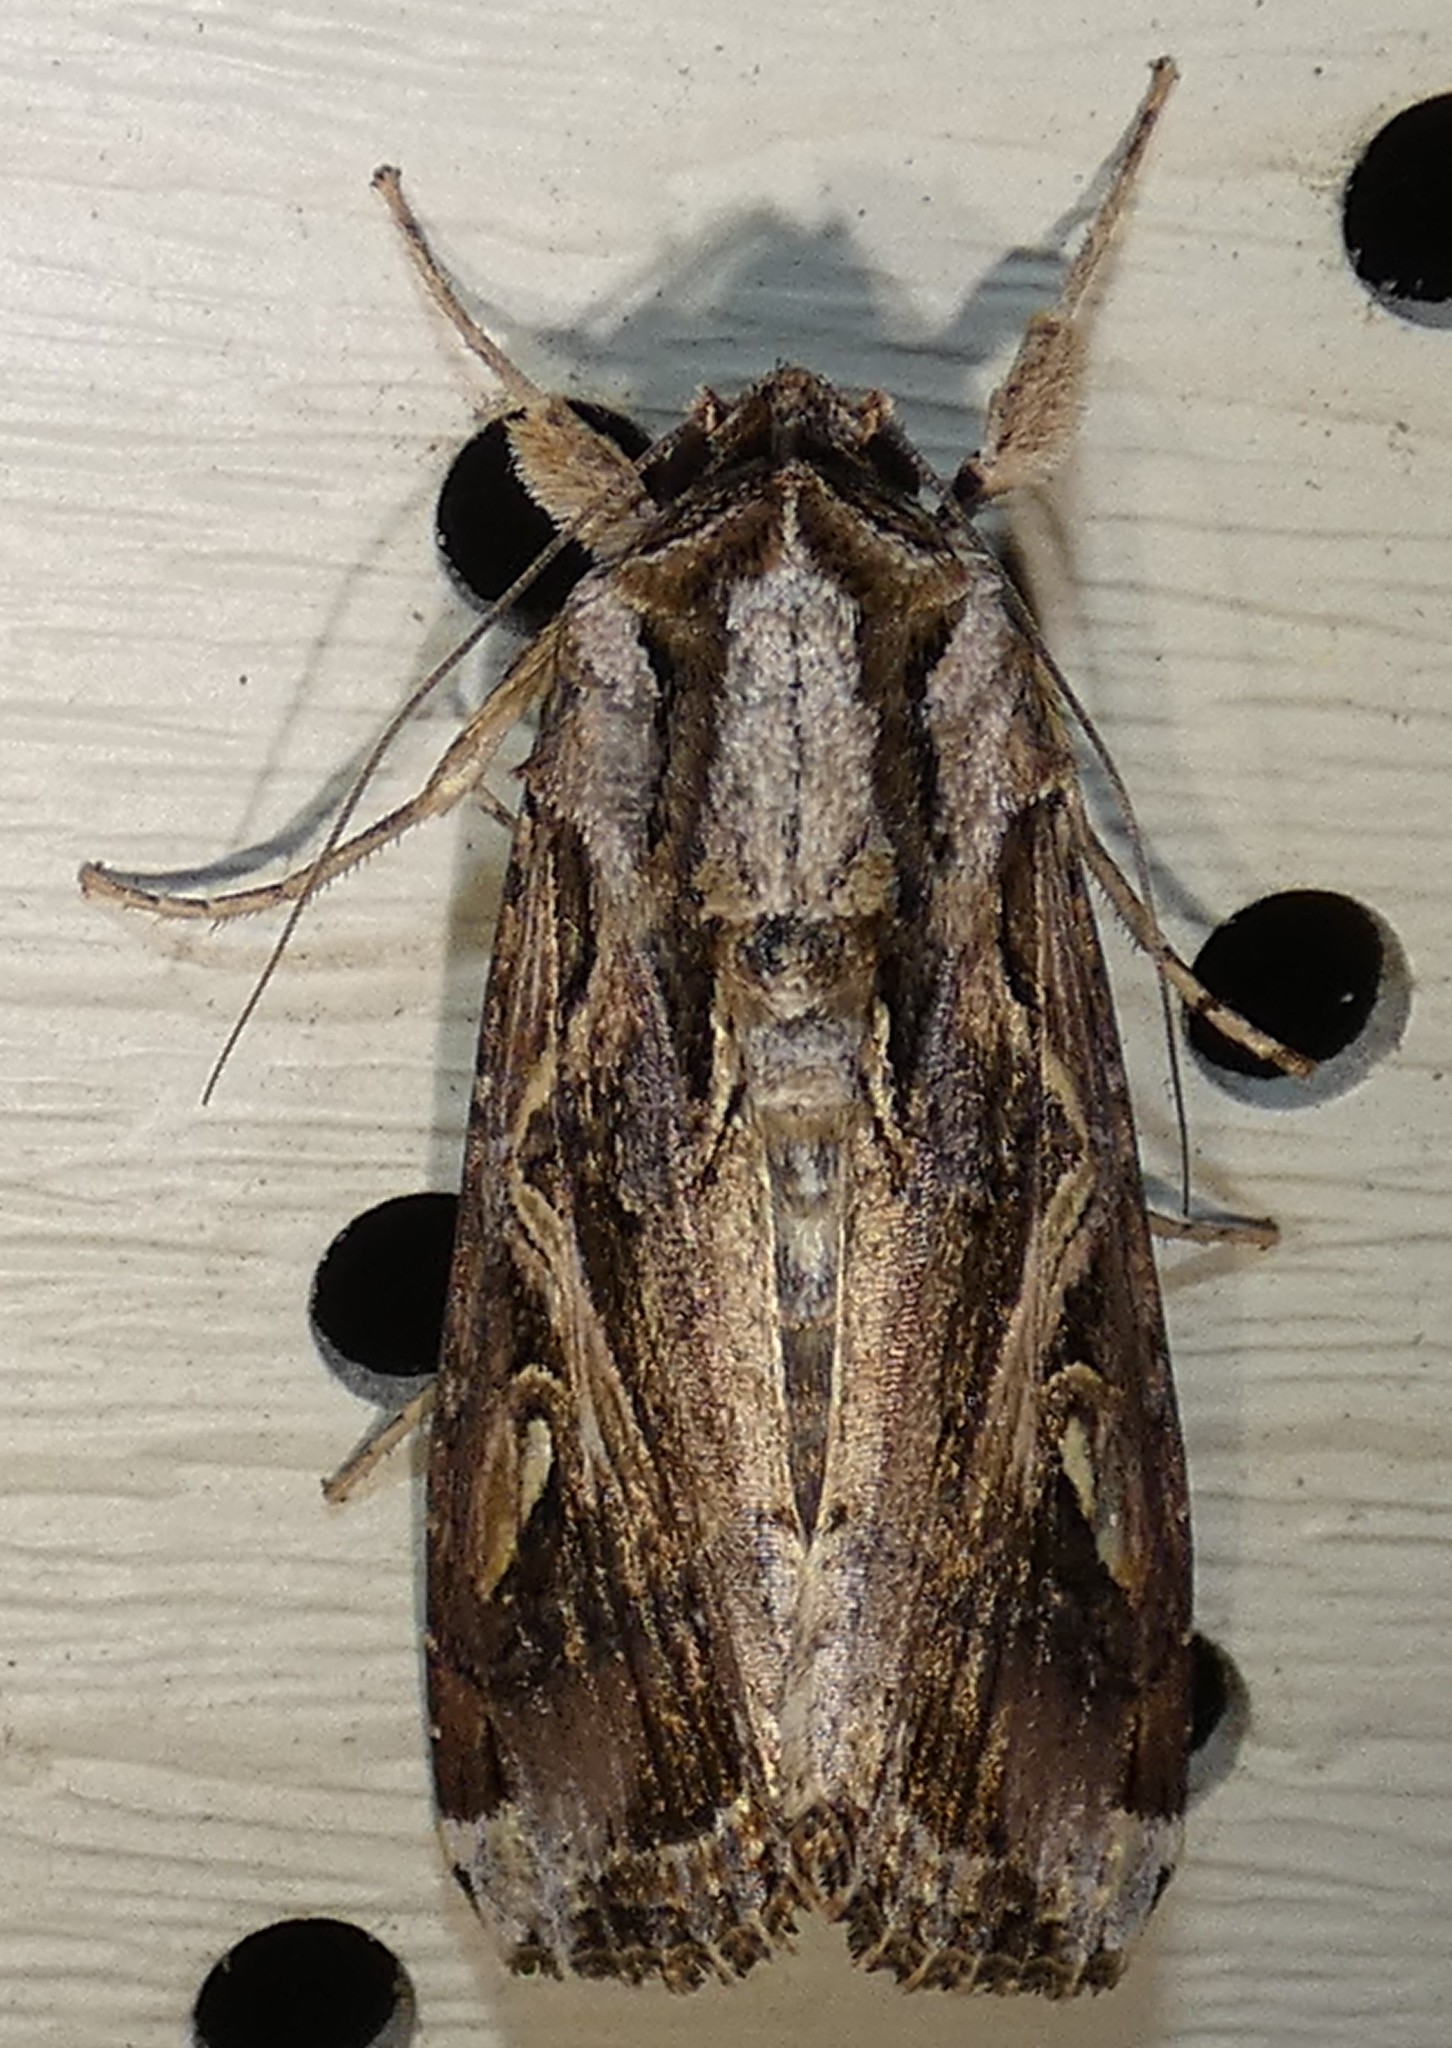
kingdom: Animalia
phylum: Arthropoda
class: Insecta
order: Lepidoptera
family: Noctuidae
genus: Spodoptera
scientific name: Spodoptera dolichos
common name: Sweetpotato armyworm
